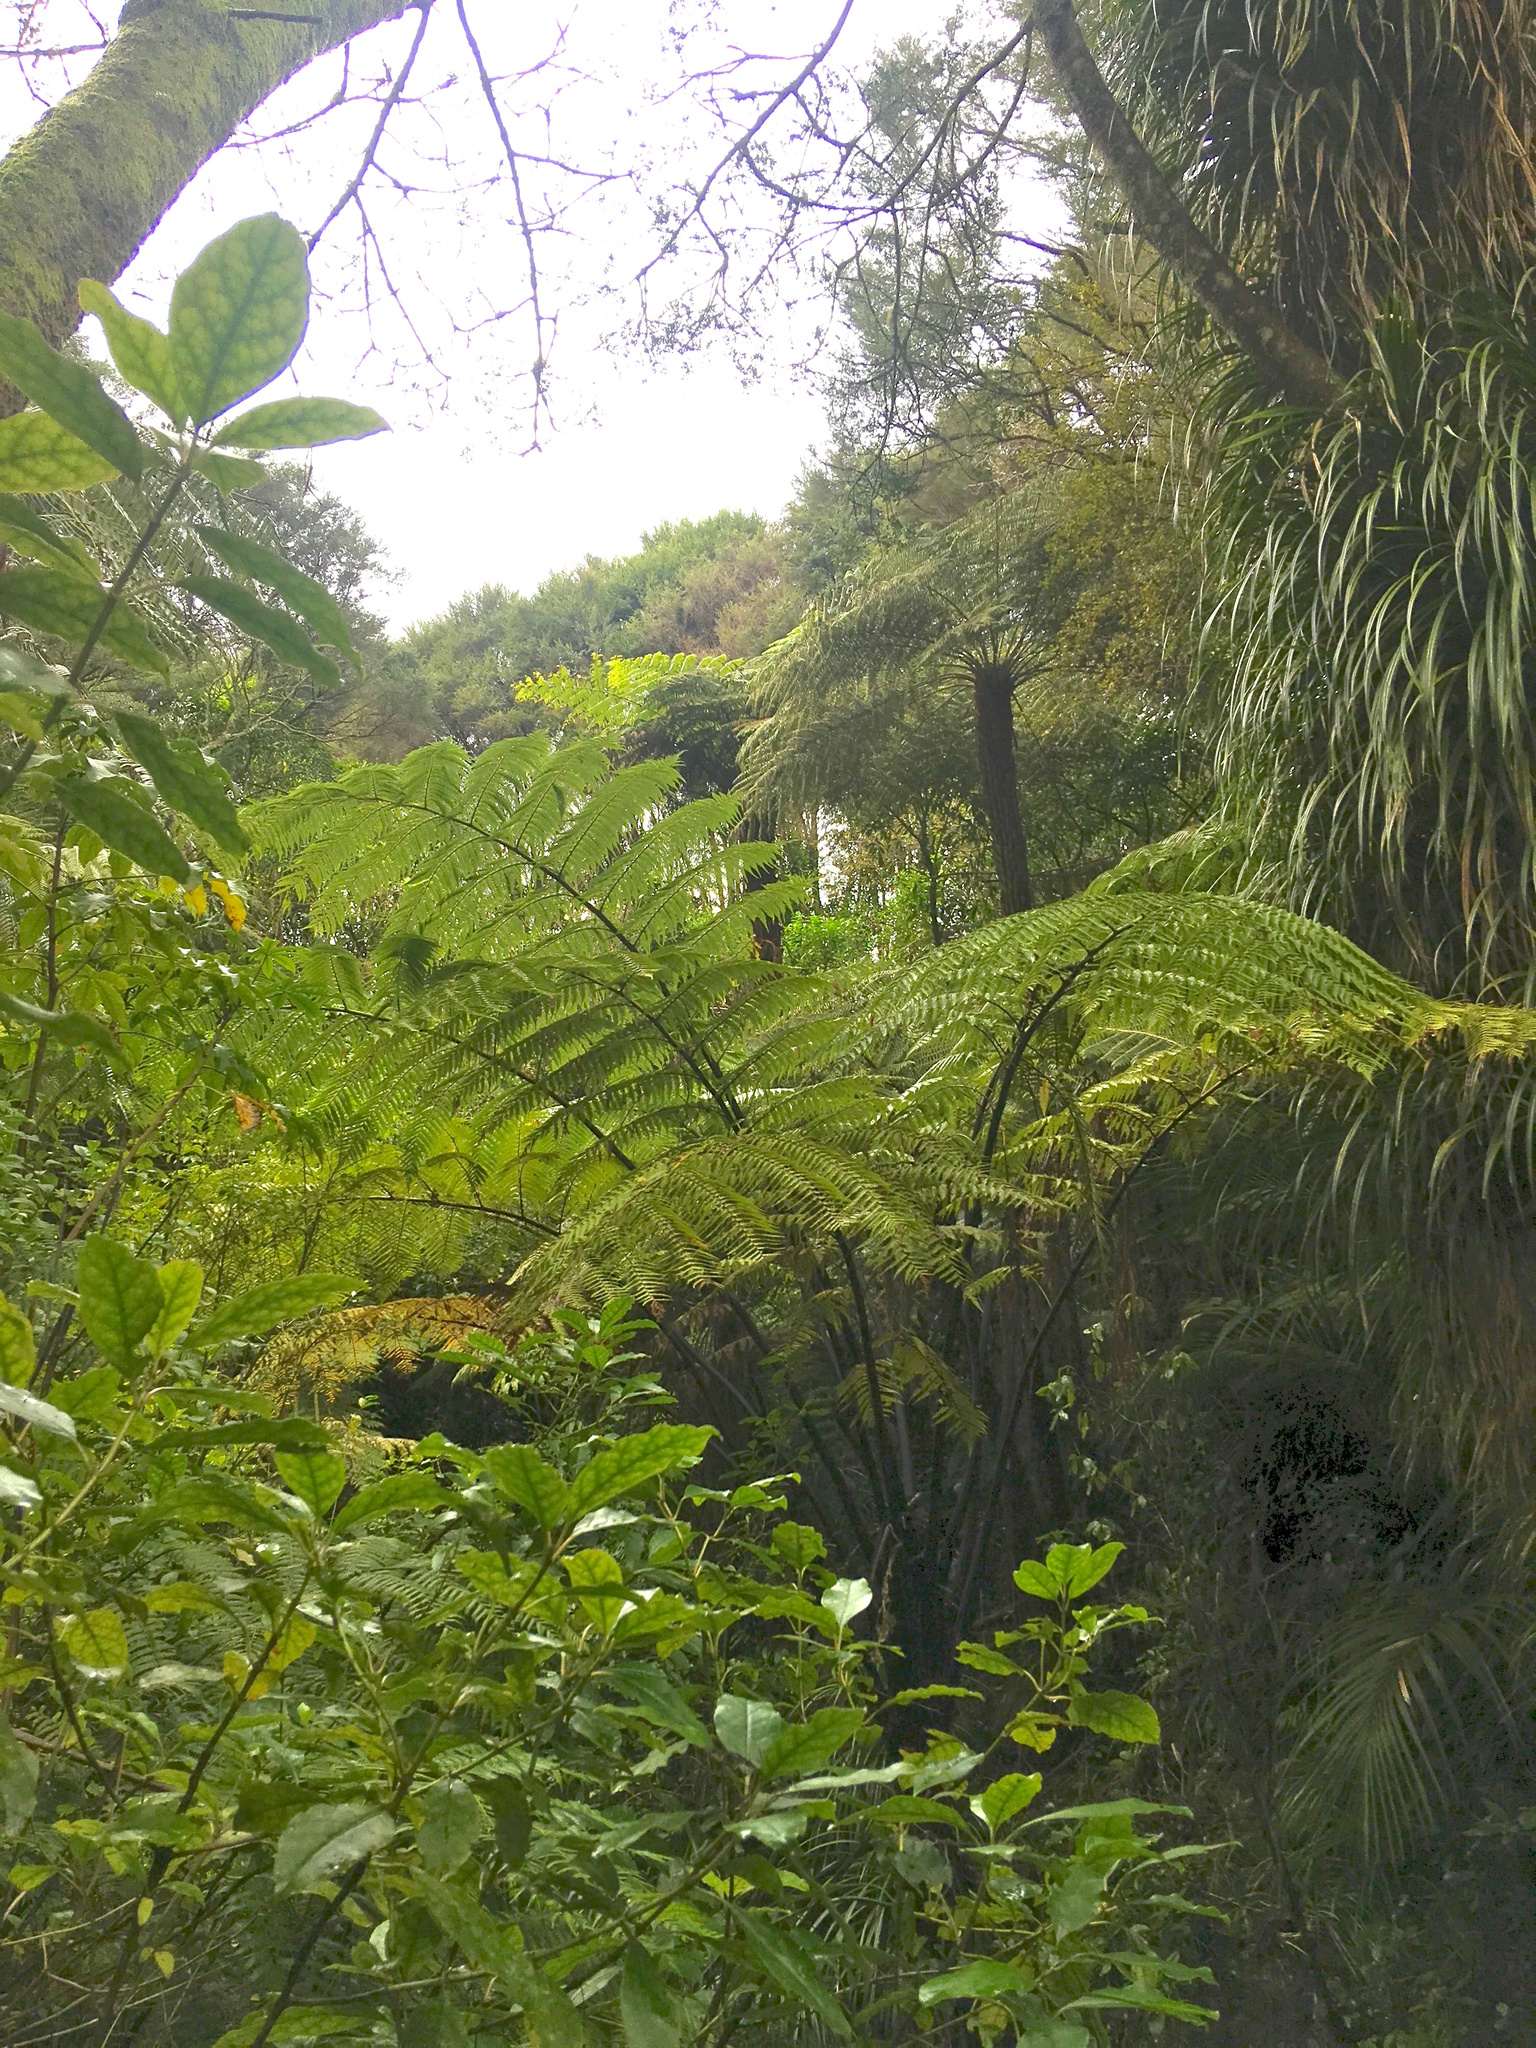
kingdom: Plantae
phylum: Tracheophyta
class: Magnoliopsida
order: Gentianales
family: Rubiaceae
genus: Coprosma
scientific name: Coprosma autumnalis
